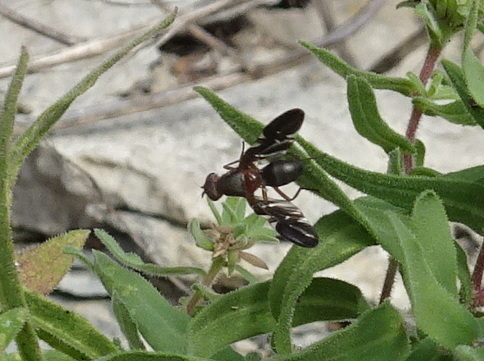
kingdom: Animalia
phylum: Arthropoda
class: Insecta
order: Diptera
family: Ulidiidae
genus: Delphinia
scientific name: Delphinia picta
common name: Common picture-winged fly
